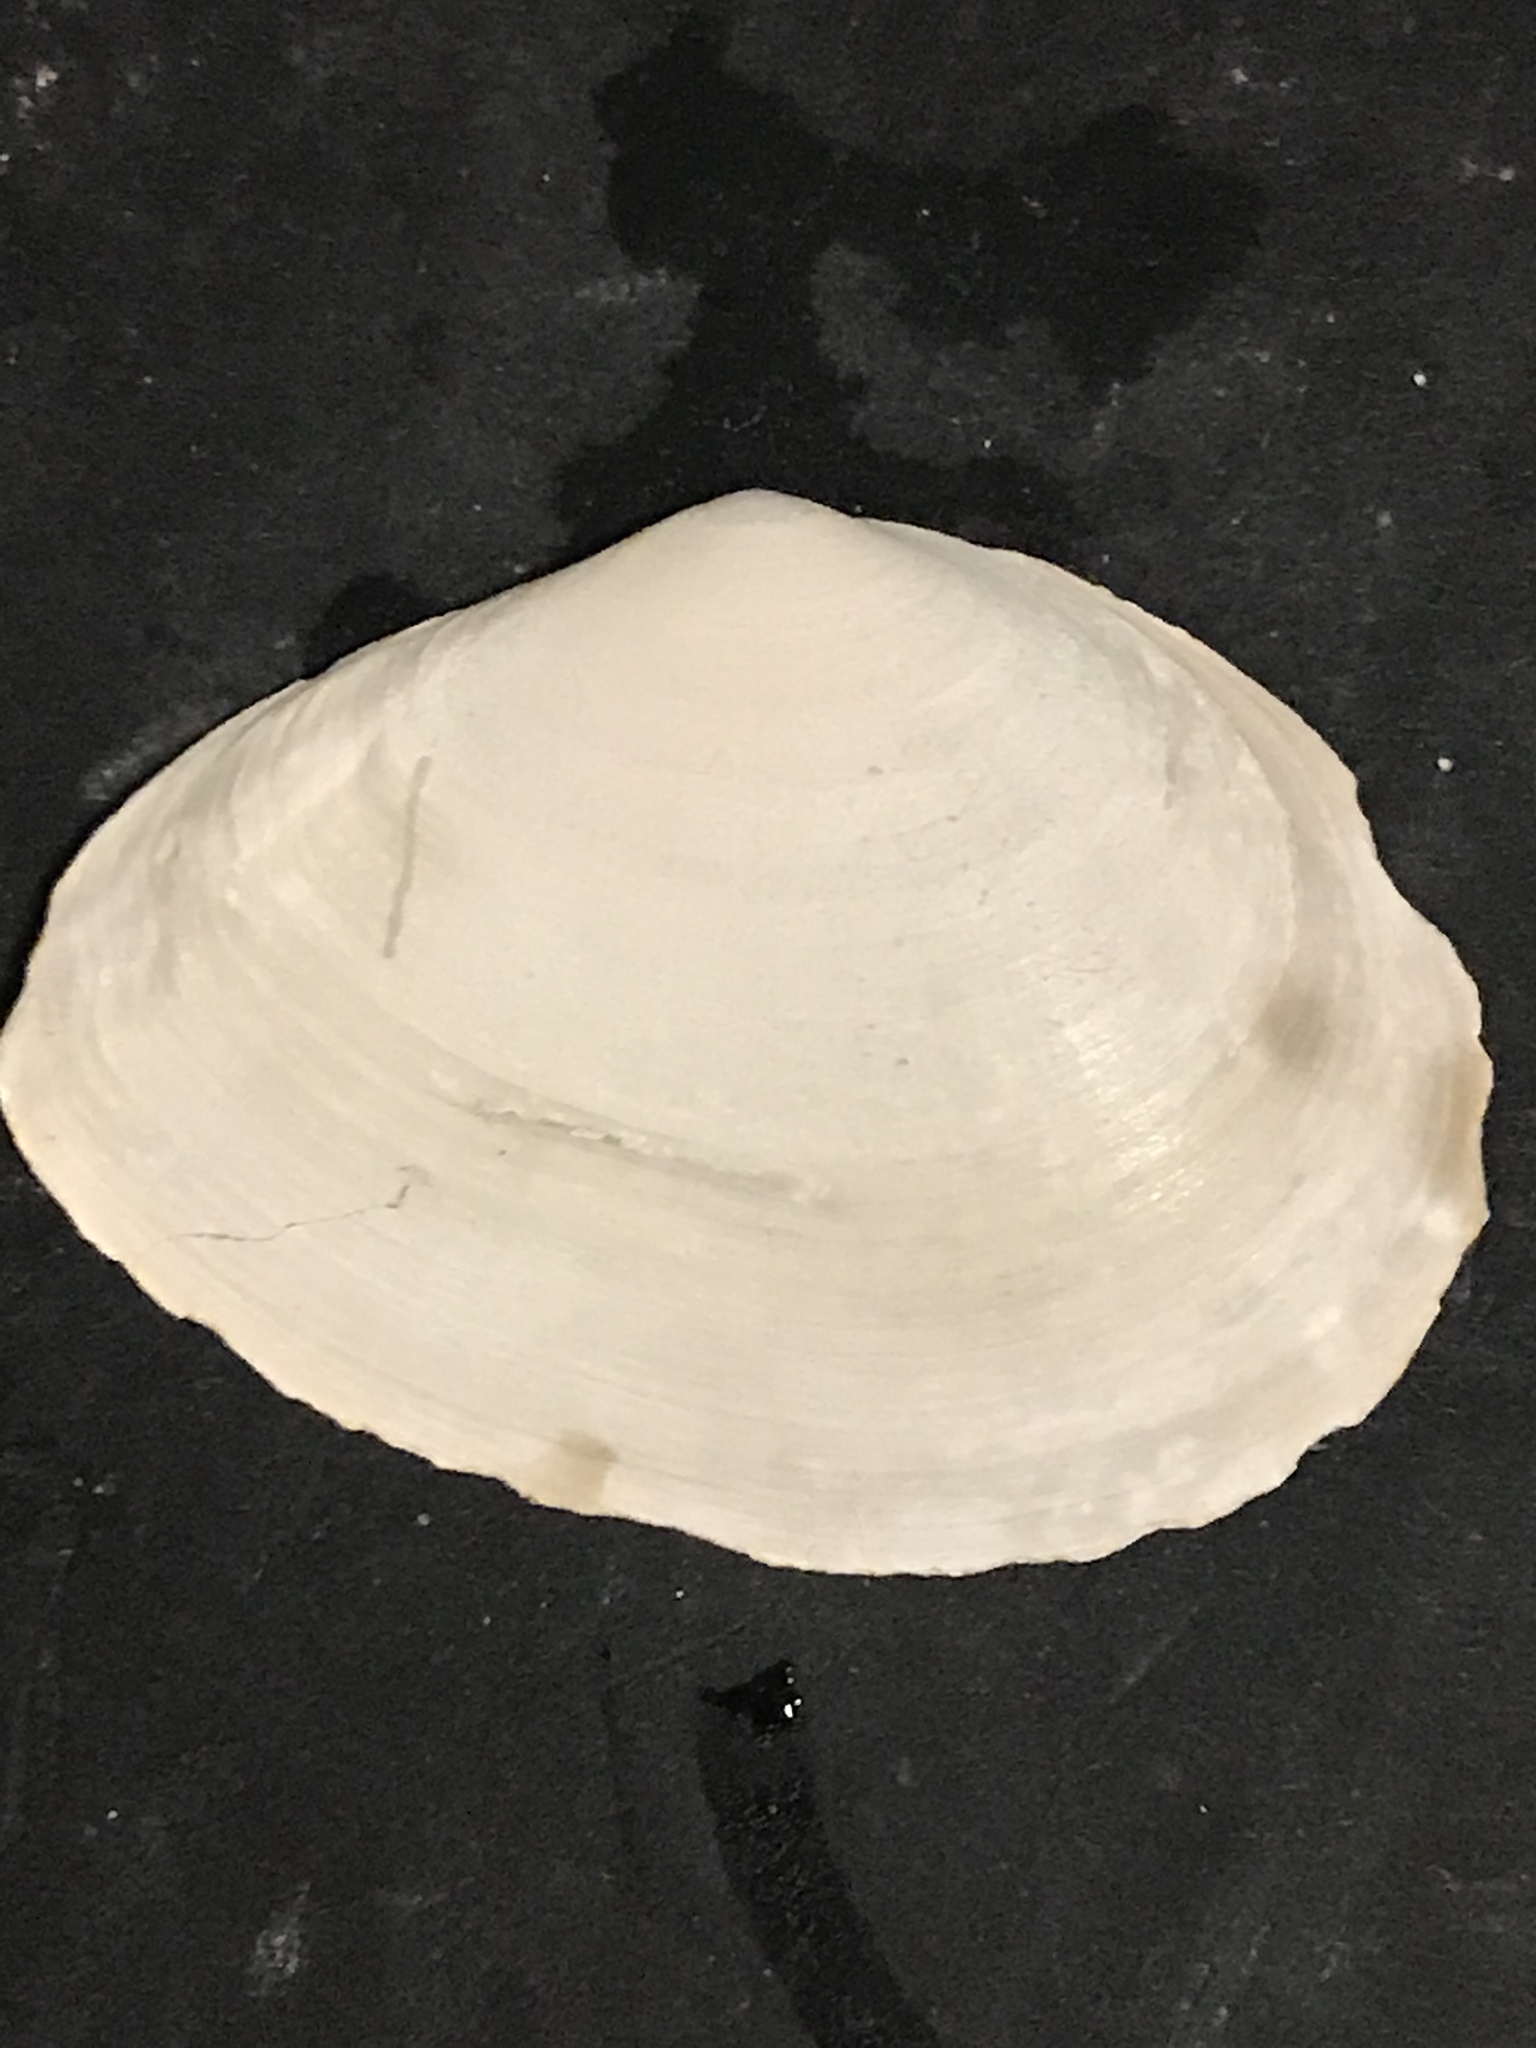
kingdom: Animalia
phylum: Mollusca
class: Bivalvia
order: Cardiida
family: Tellinidae
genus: Macoma
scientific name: Macoma nasuta
